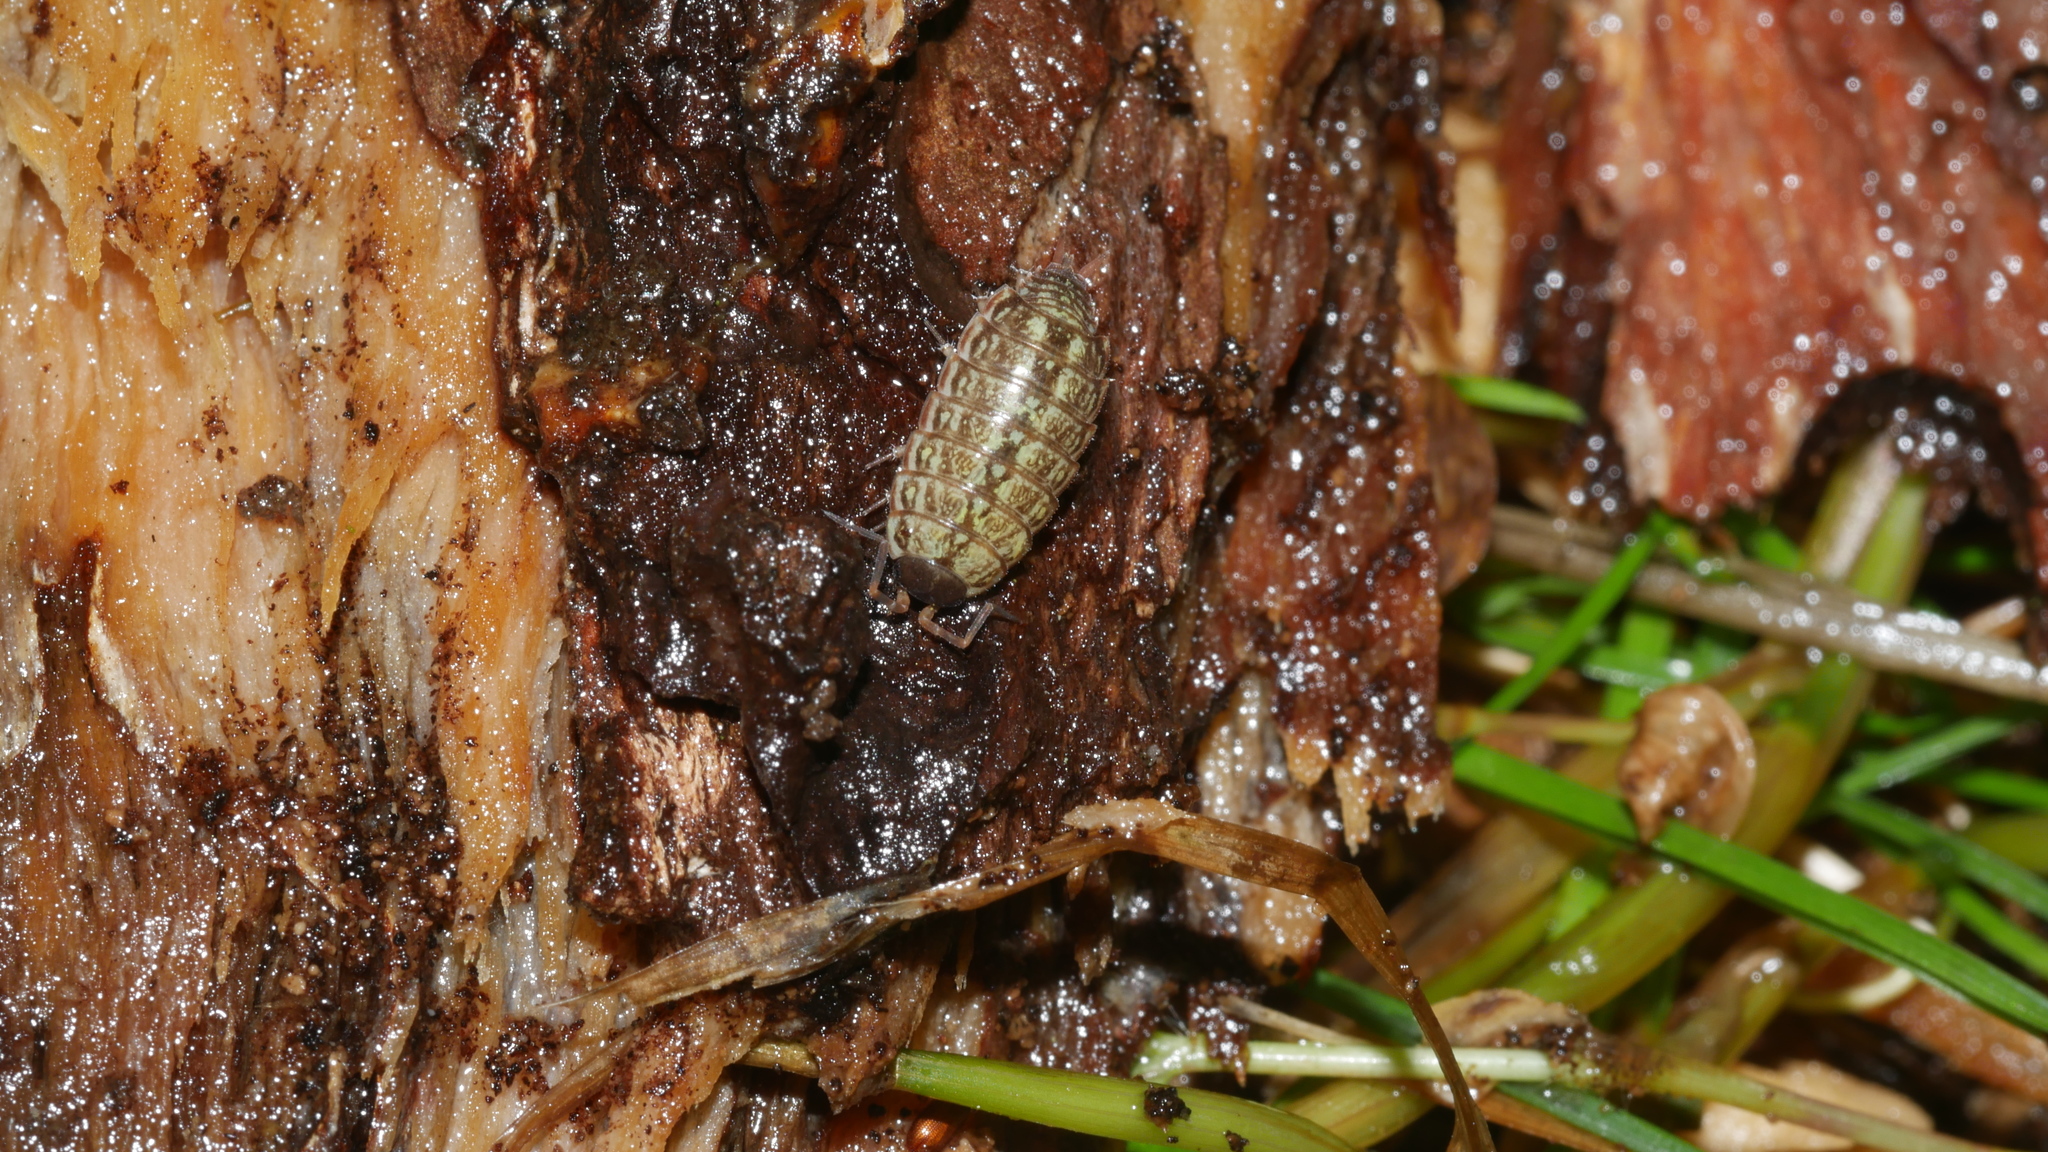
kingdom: Animalia
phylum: Arthropoda
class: Malacostraca
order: Isopoda
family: Philosciidae
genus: Philoscia
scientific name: Philoscia muscorum
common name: Common striped woodlouse
